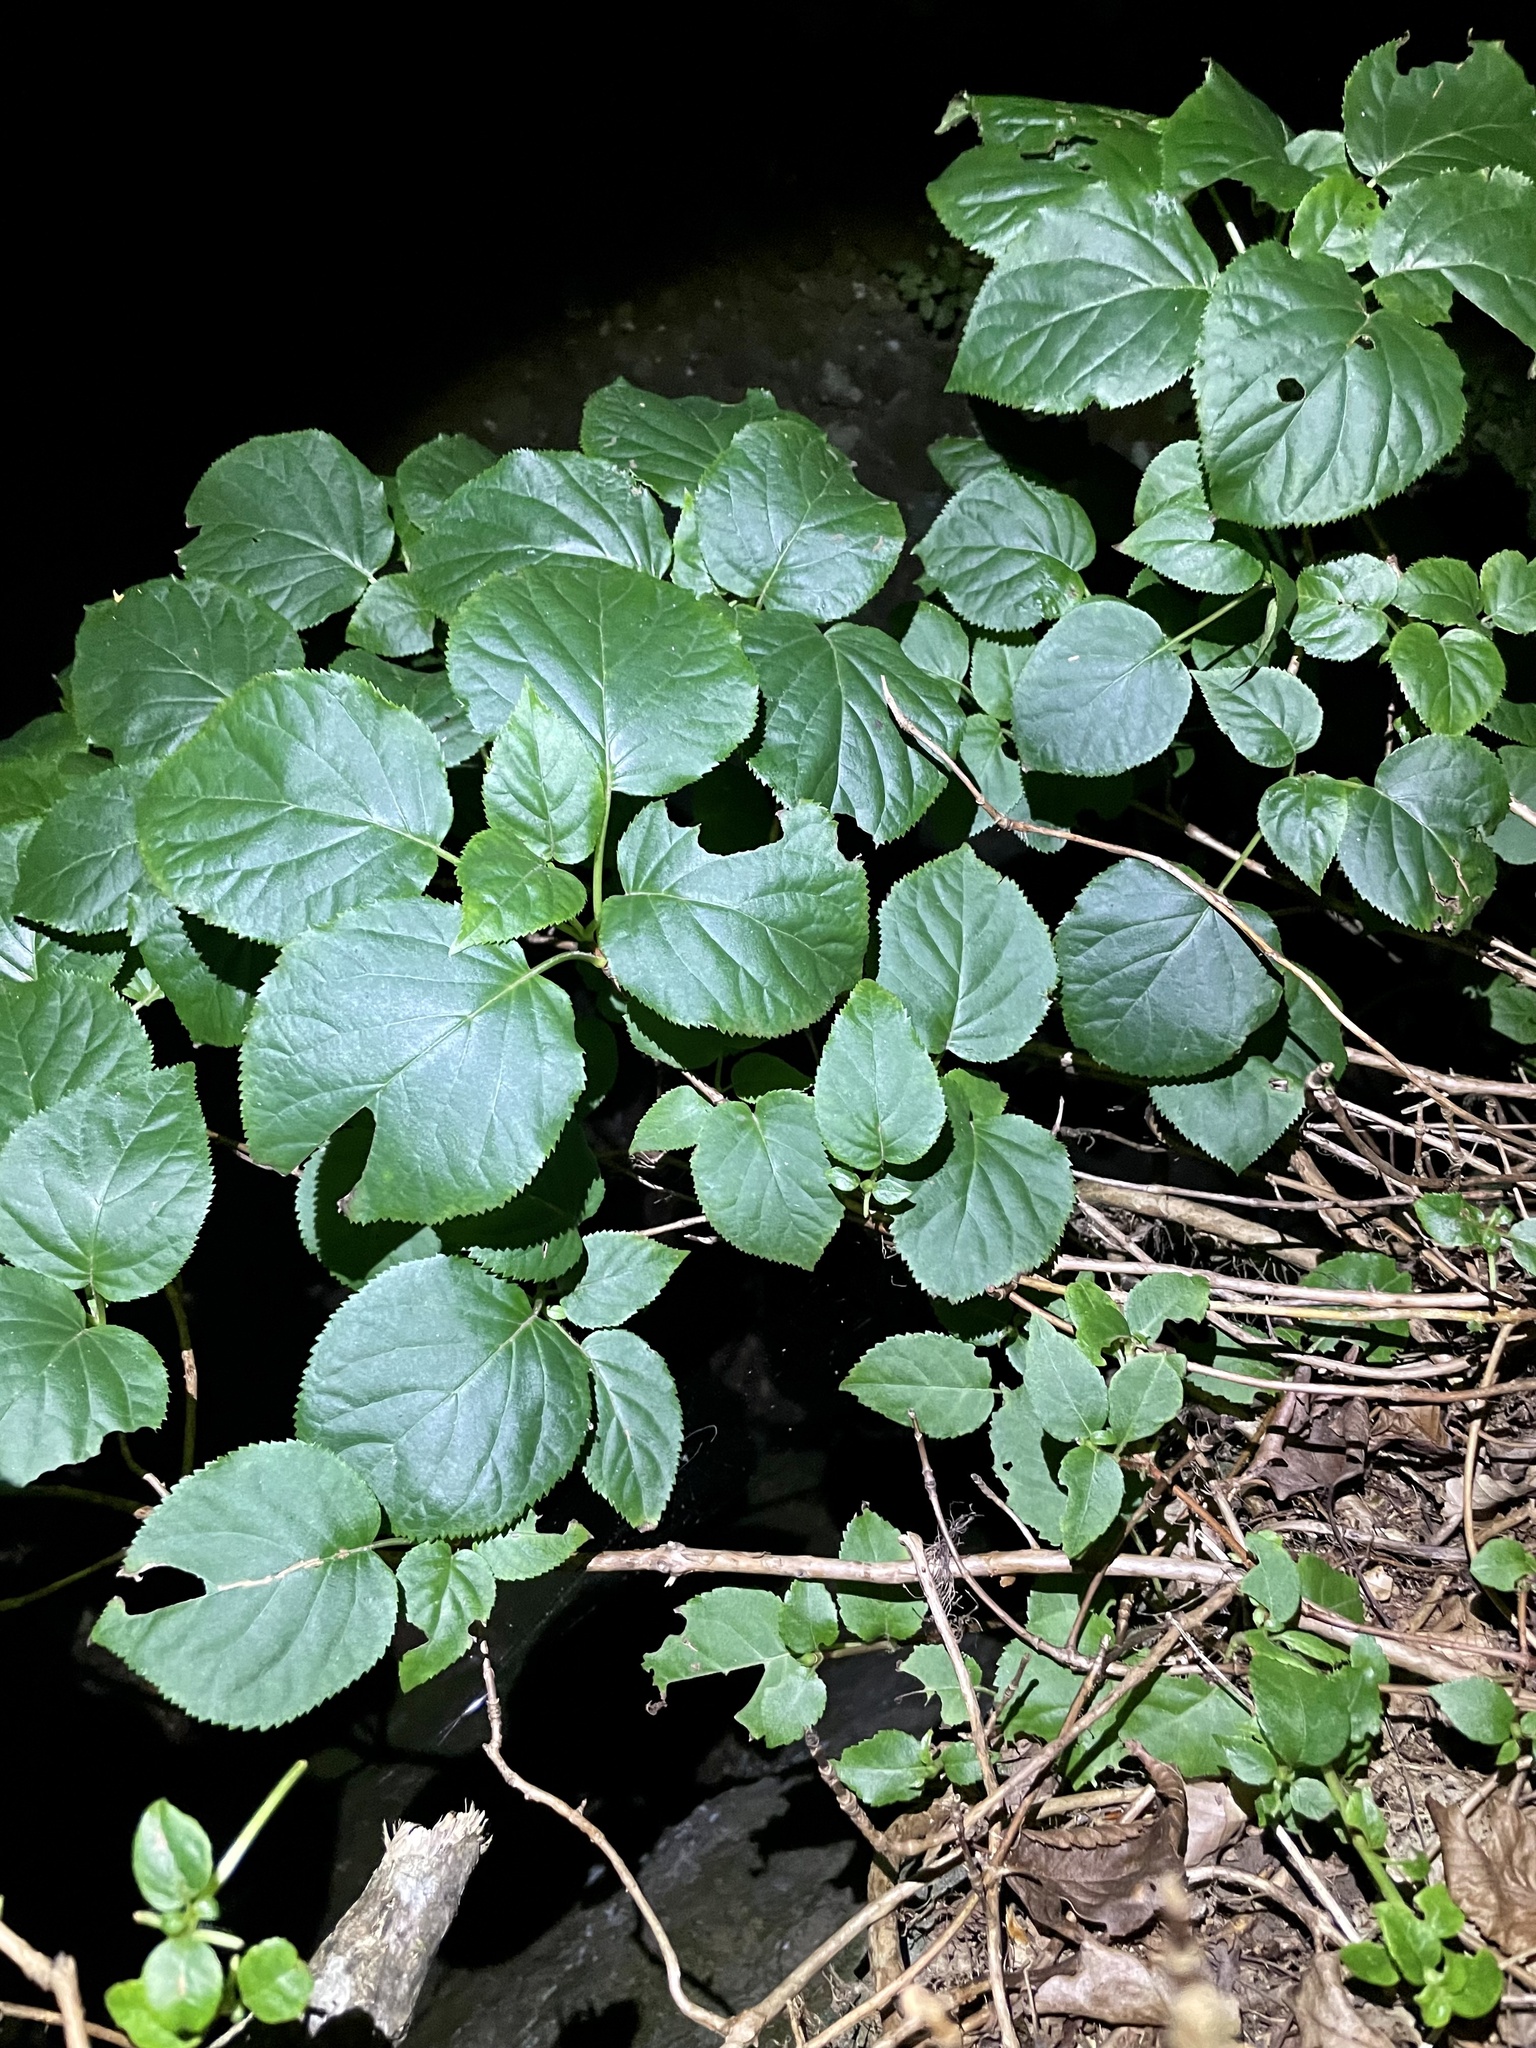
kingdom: Plantae
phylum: Tracheophyta
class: Magnoliopsida
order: Cornales
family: Hydrangeaceae
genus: Hydrangea
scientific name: Hydrangea petiolaris
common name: Japanese climbing hydrangea
